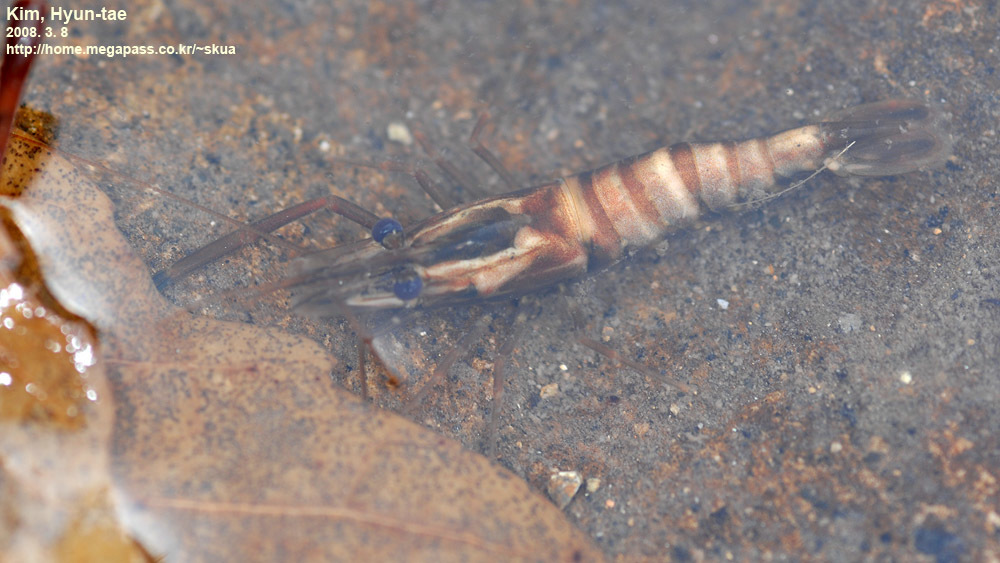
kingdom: Animalia
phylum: Arthropoda
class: Malacostraca
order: Decapoda
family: Palaemonidae
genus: Macrobrachium
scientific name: Macrobrachium koreana
